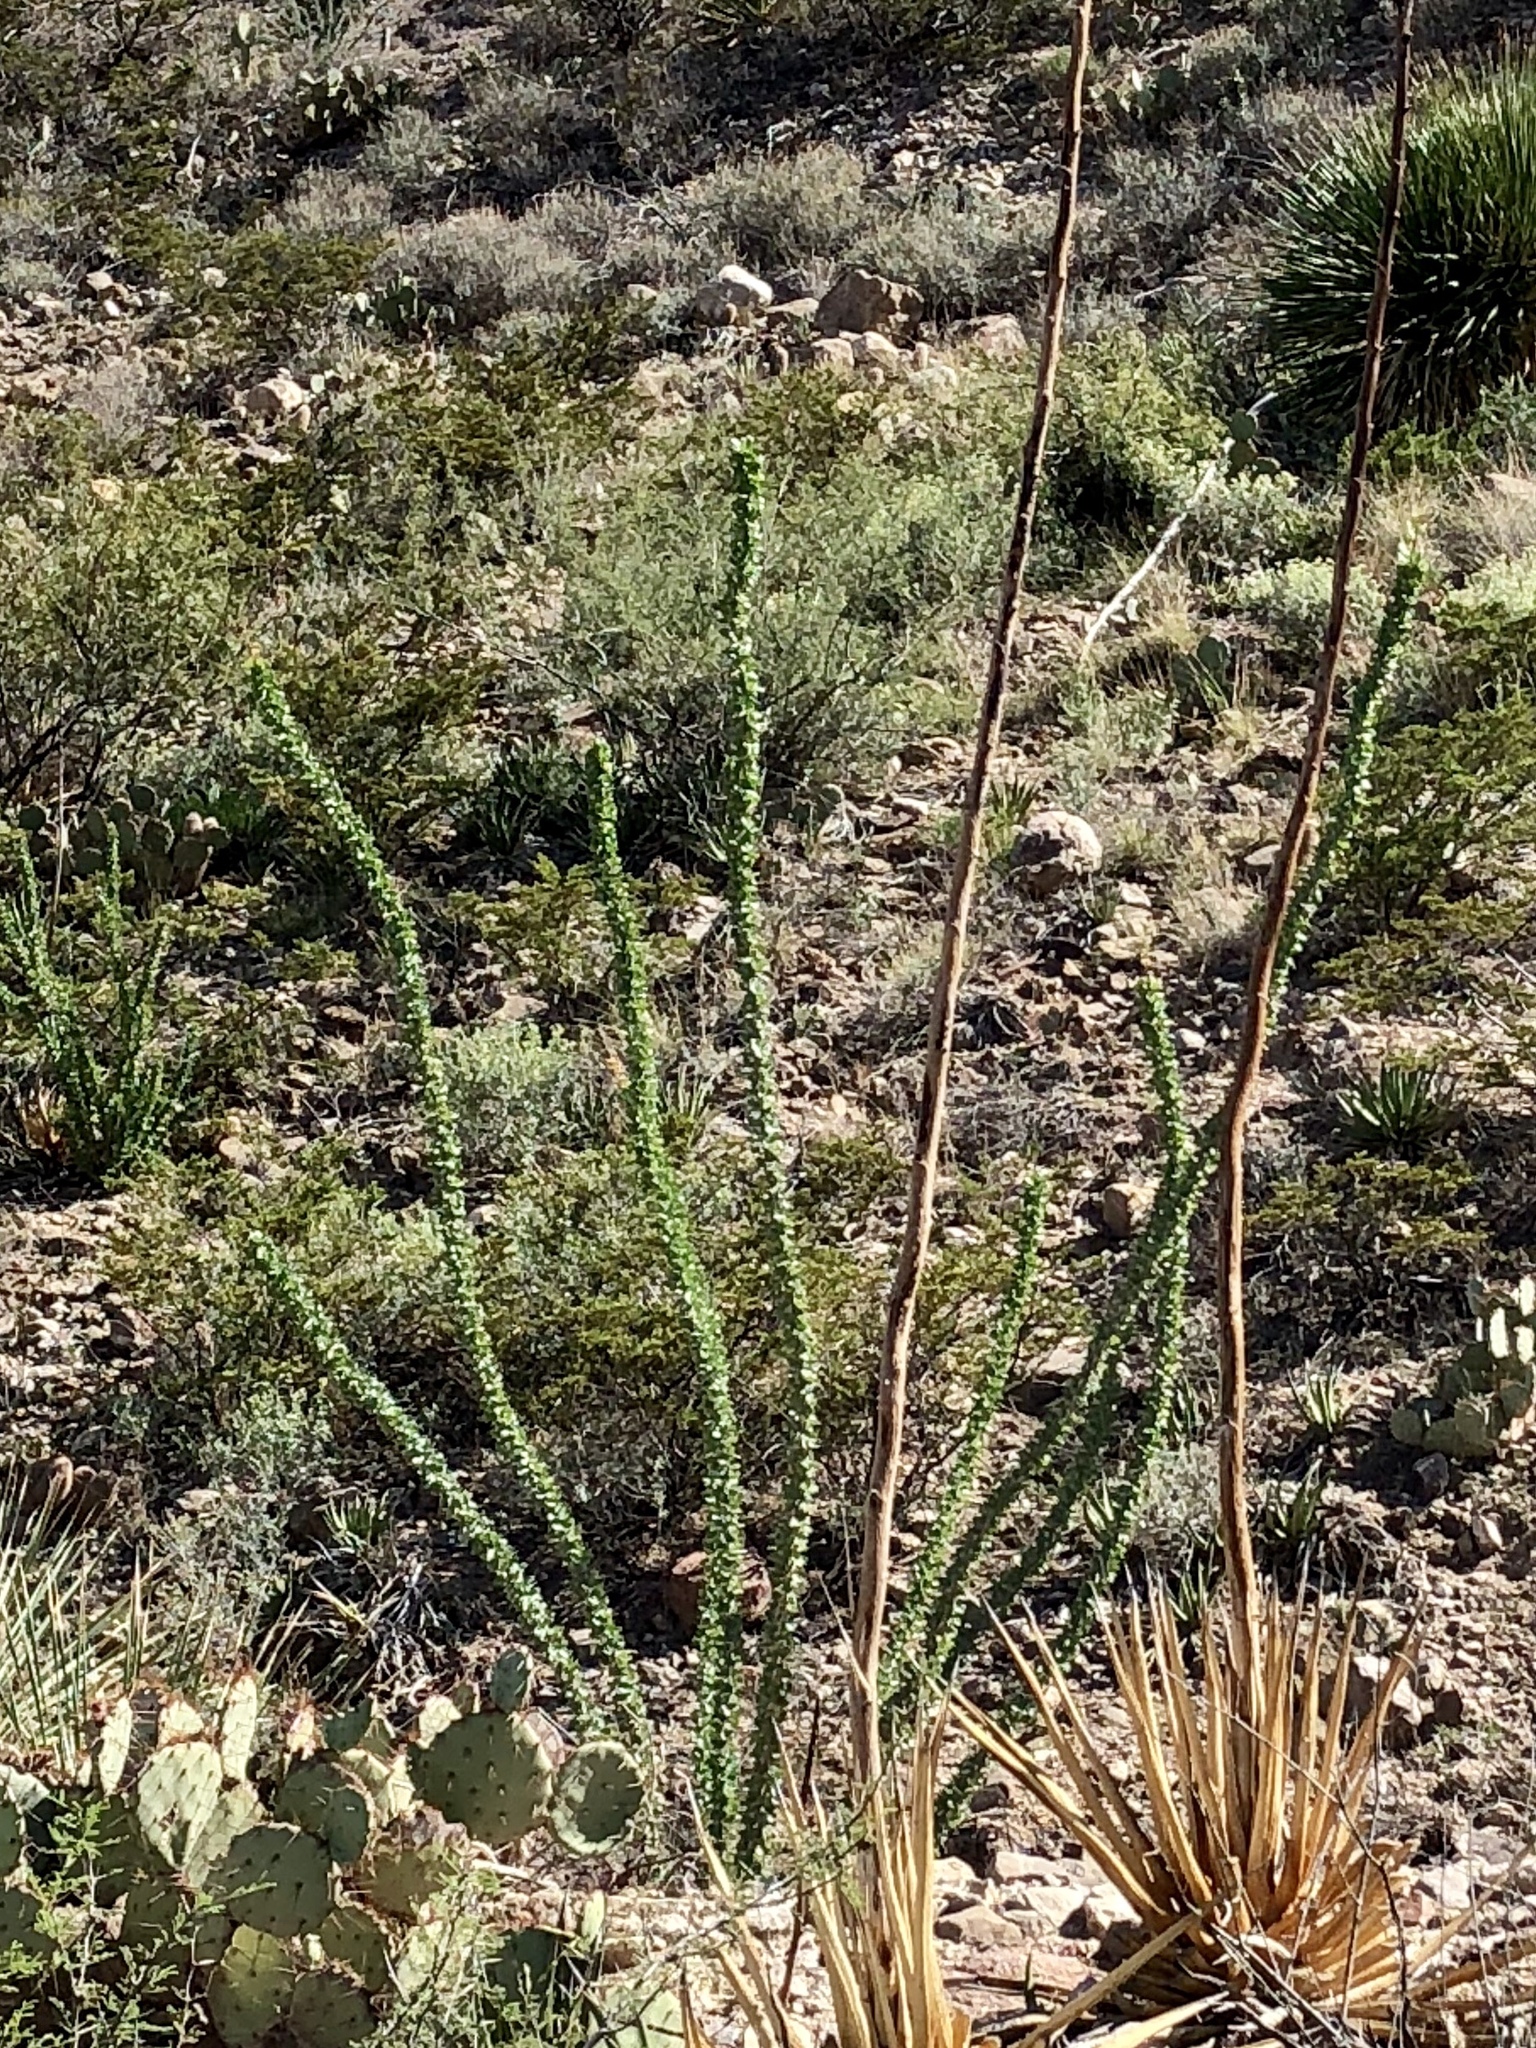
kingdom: Plantae
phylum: Tracheophyta
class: Magnoliopsida
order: Ericales
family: Fouquieriaceae
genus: Fouquieria
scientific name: Fouquieria splendens
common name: Vine-cactus
